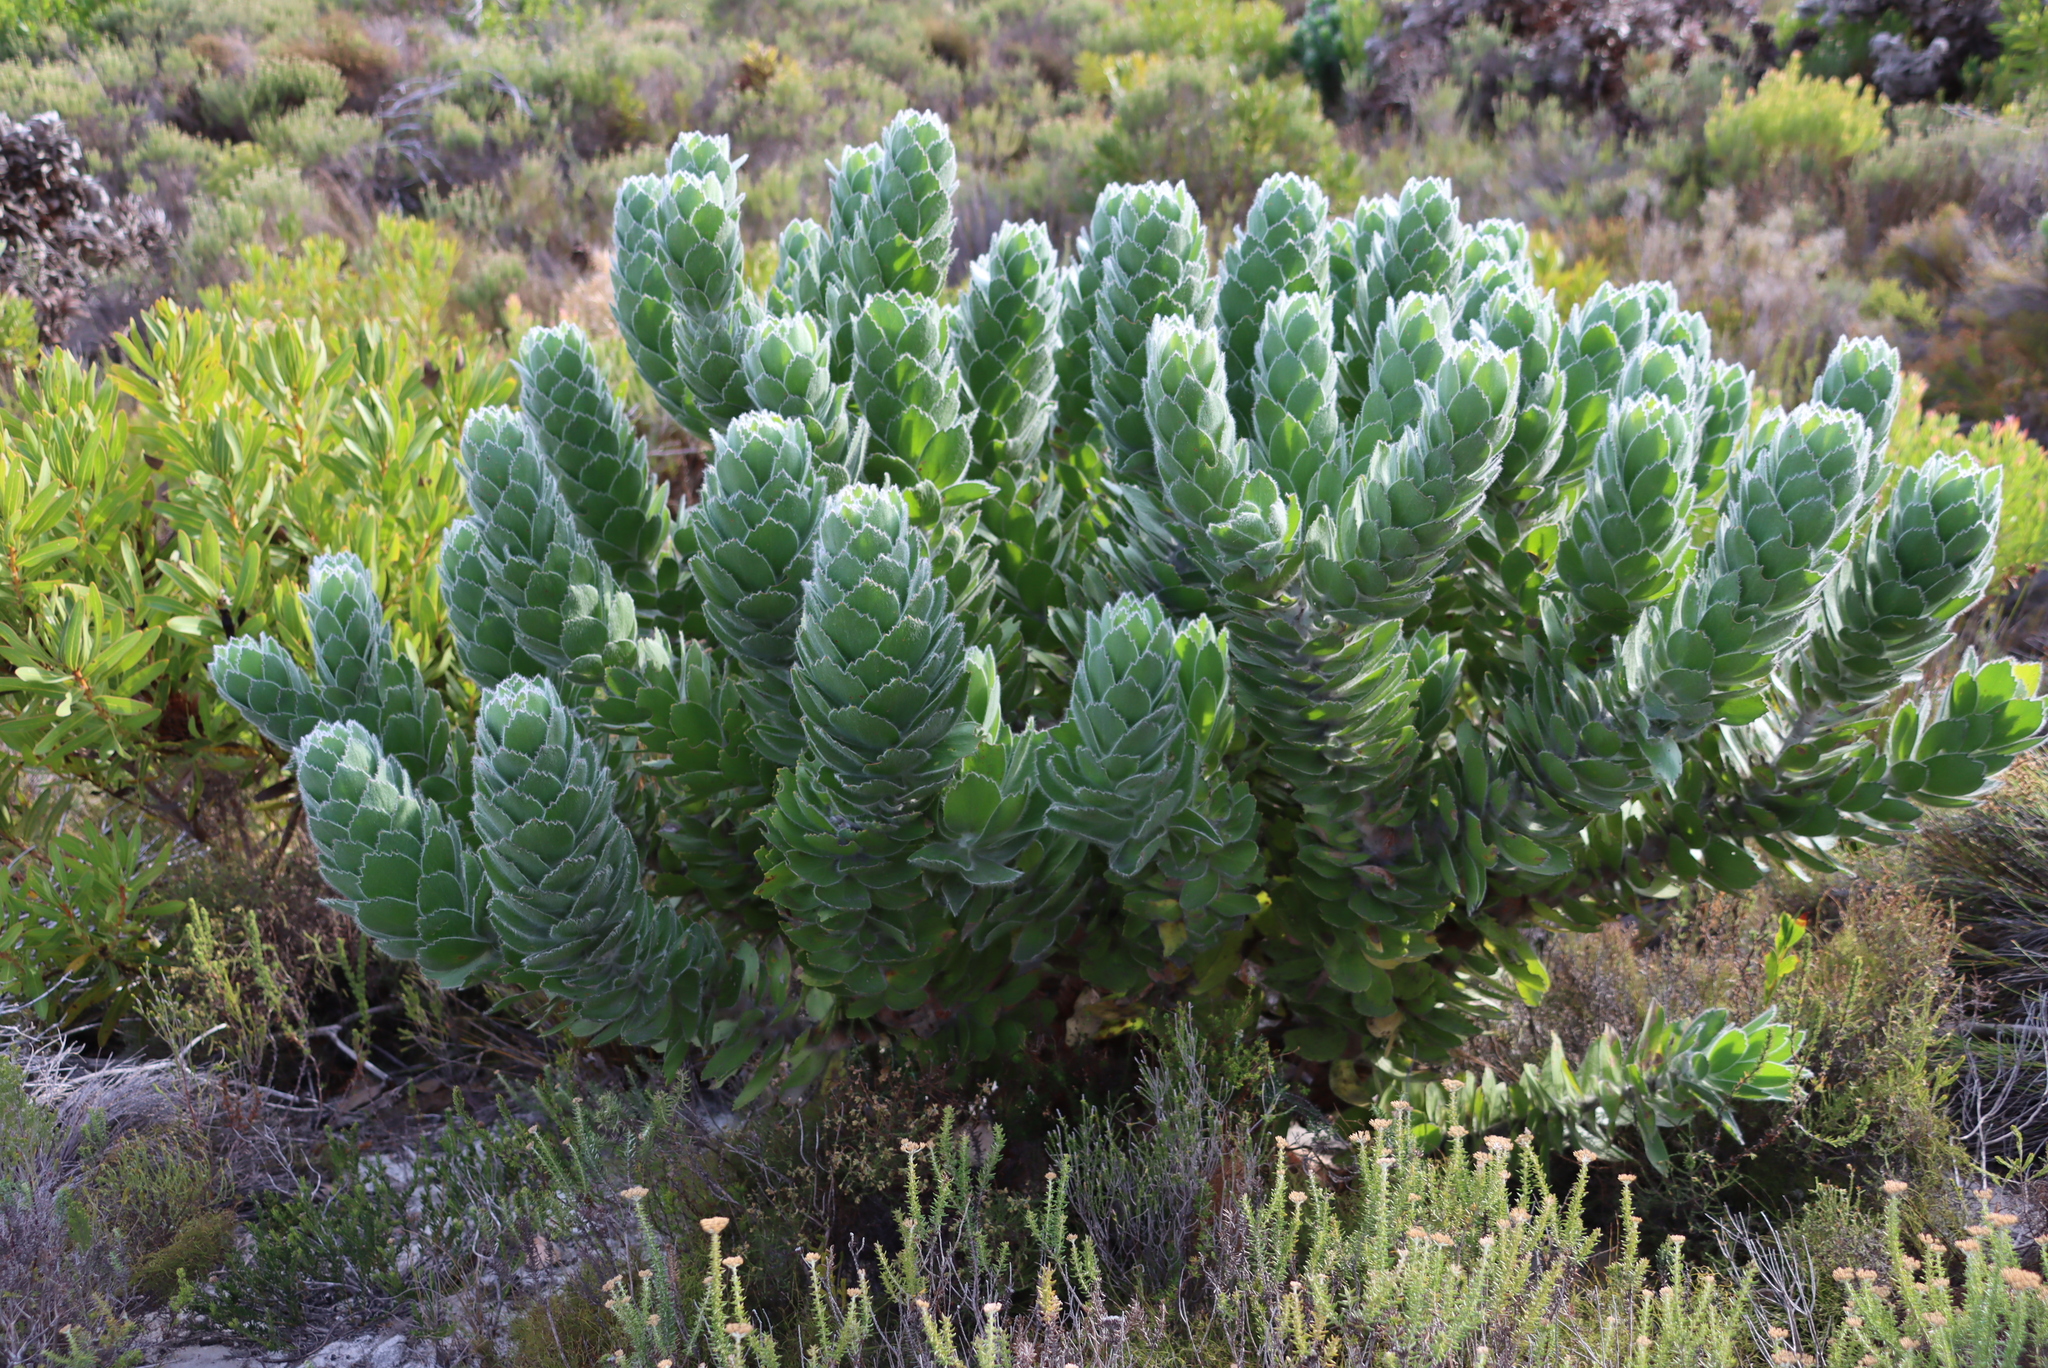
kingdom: Plantae
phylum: Tracheophyta
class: Magnoliopsida
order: Proteales
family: Proteaceae
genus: Leucospermum
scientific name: Leucospermum conocarpodendron
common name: Tree pincushion
